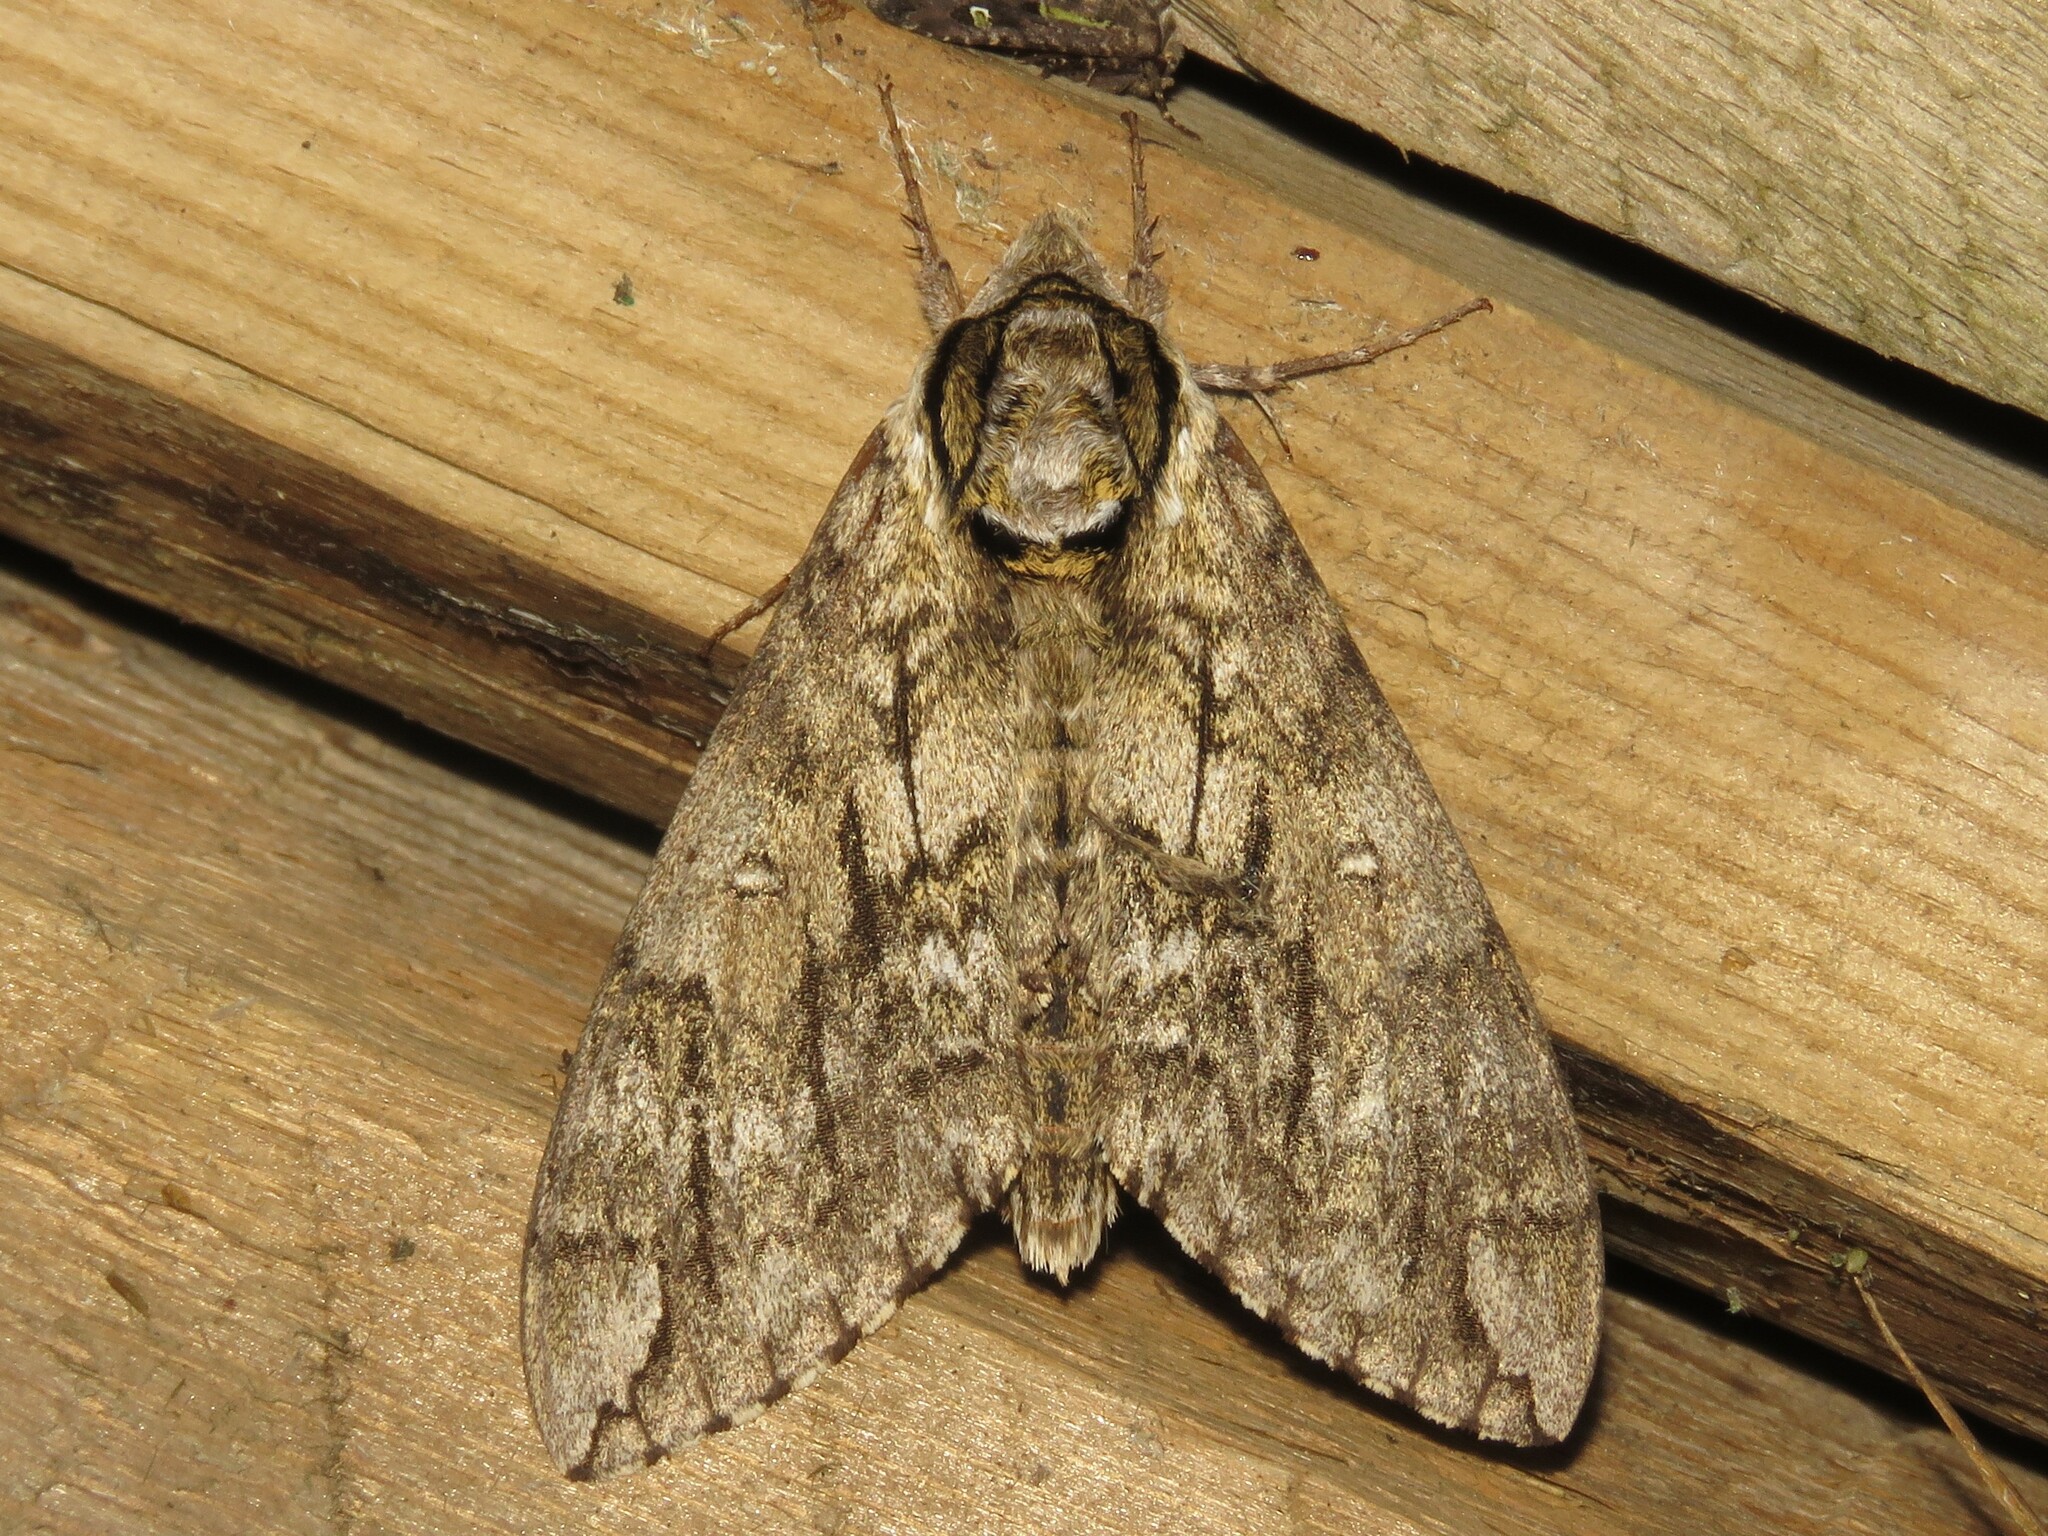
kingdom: Animalia
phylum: Arthropoda
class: Insecta
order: Lepidoptera
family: Sphingidae
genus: Ceratomia
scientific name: Ceratomia undulosa
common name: Waved sphinx
